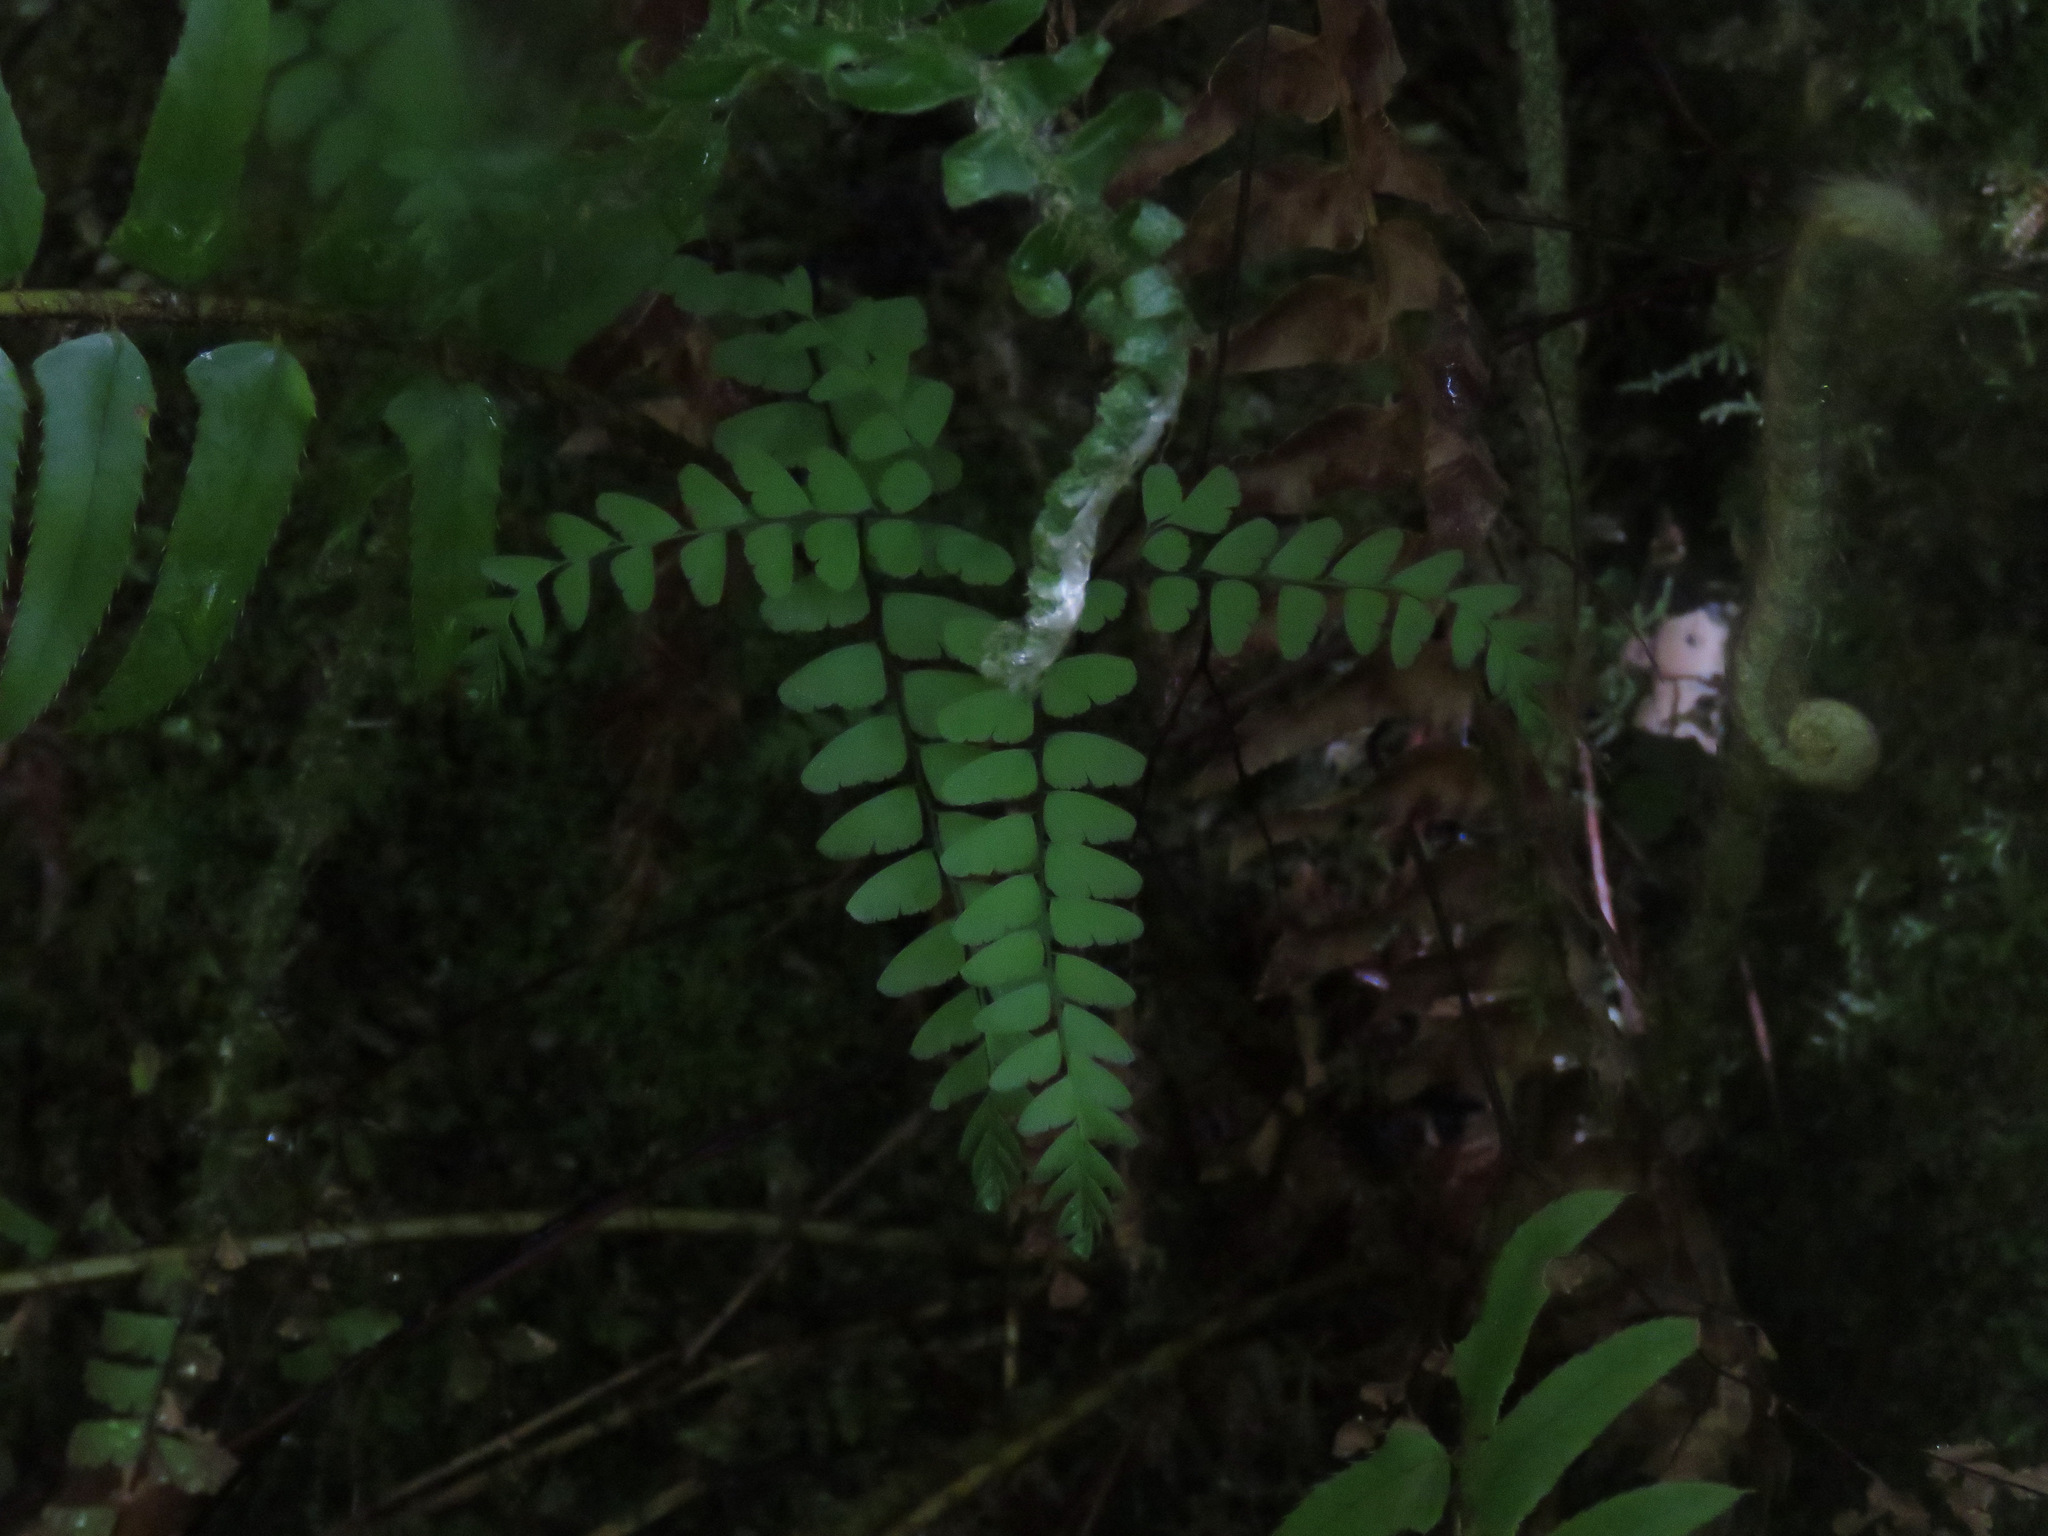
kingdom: Plantae
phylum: Tracheophyta
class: Polypodiopsida
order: Polypodiales
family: Pteridaceae
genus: Adiantum
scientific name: Adiantum aleuticum
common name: Aleutian maidenhair fern
